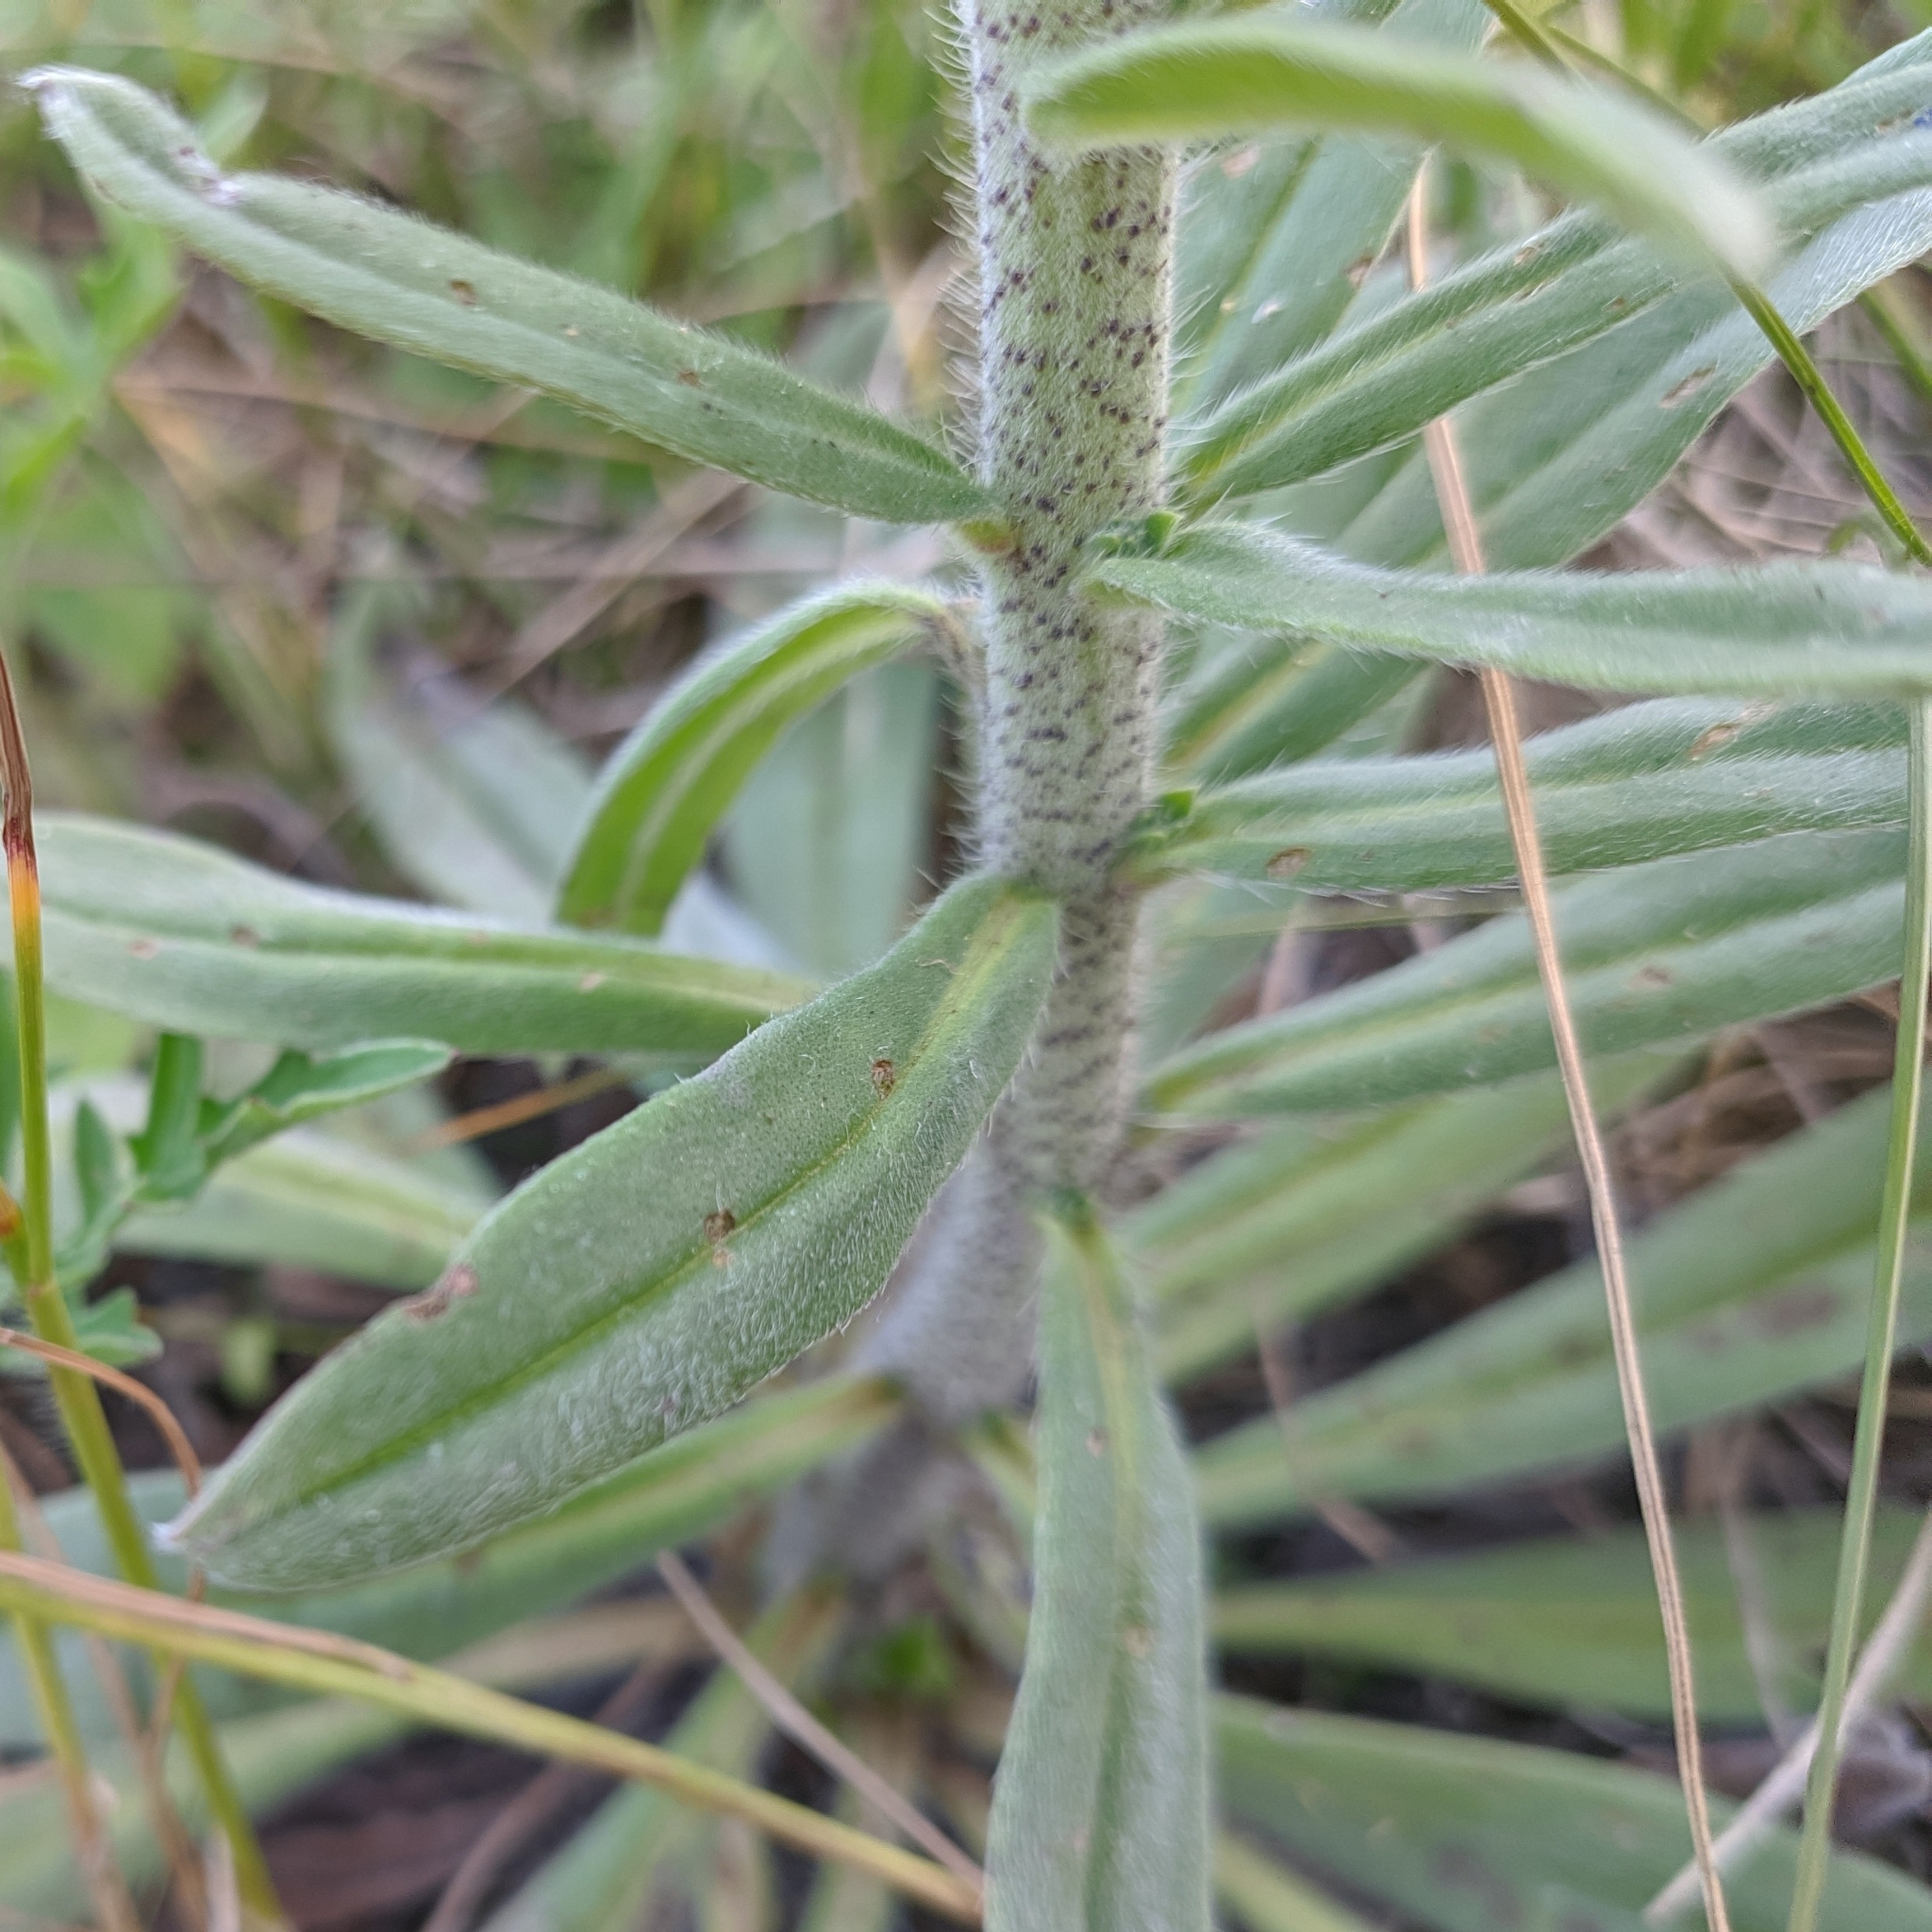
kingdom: Plantae
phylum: Tracheophyta
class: Magnoliopsida
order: Boraginales
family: Boraginaceae
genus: Echium
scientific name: Echium vulgare
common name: Common viper's bugloss
